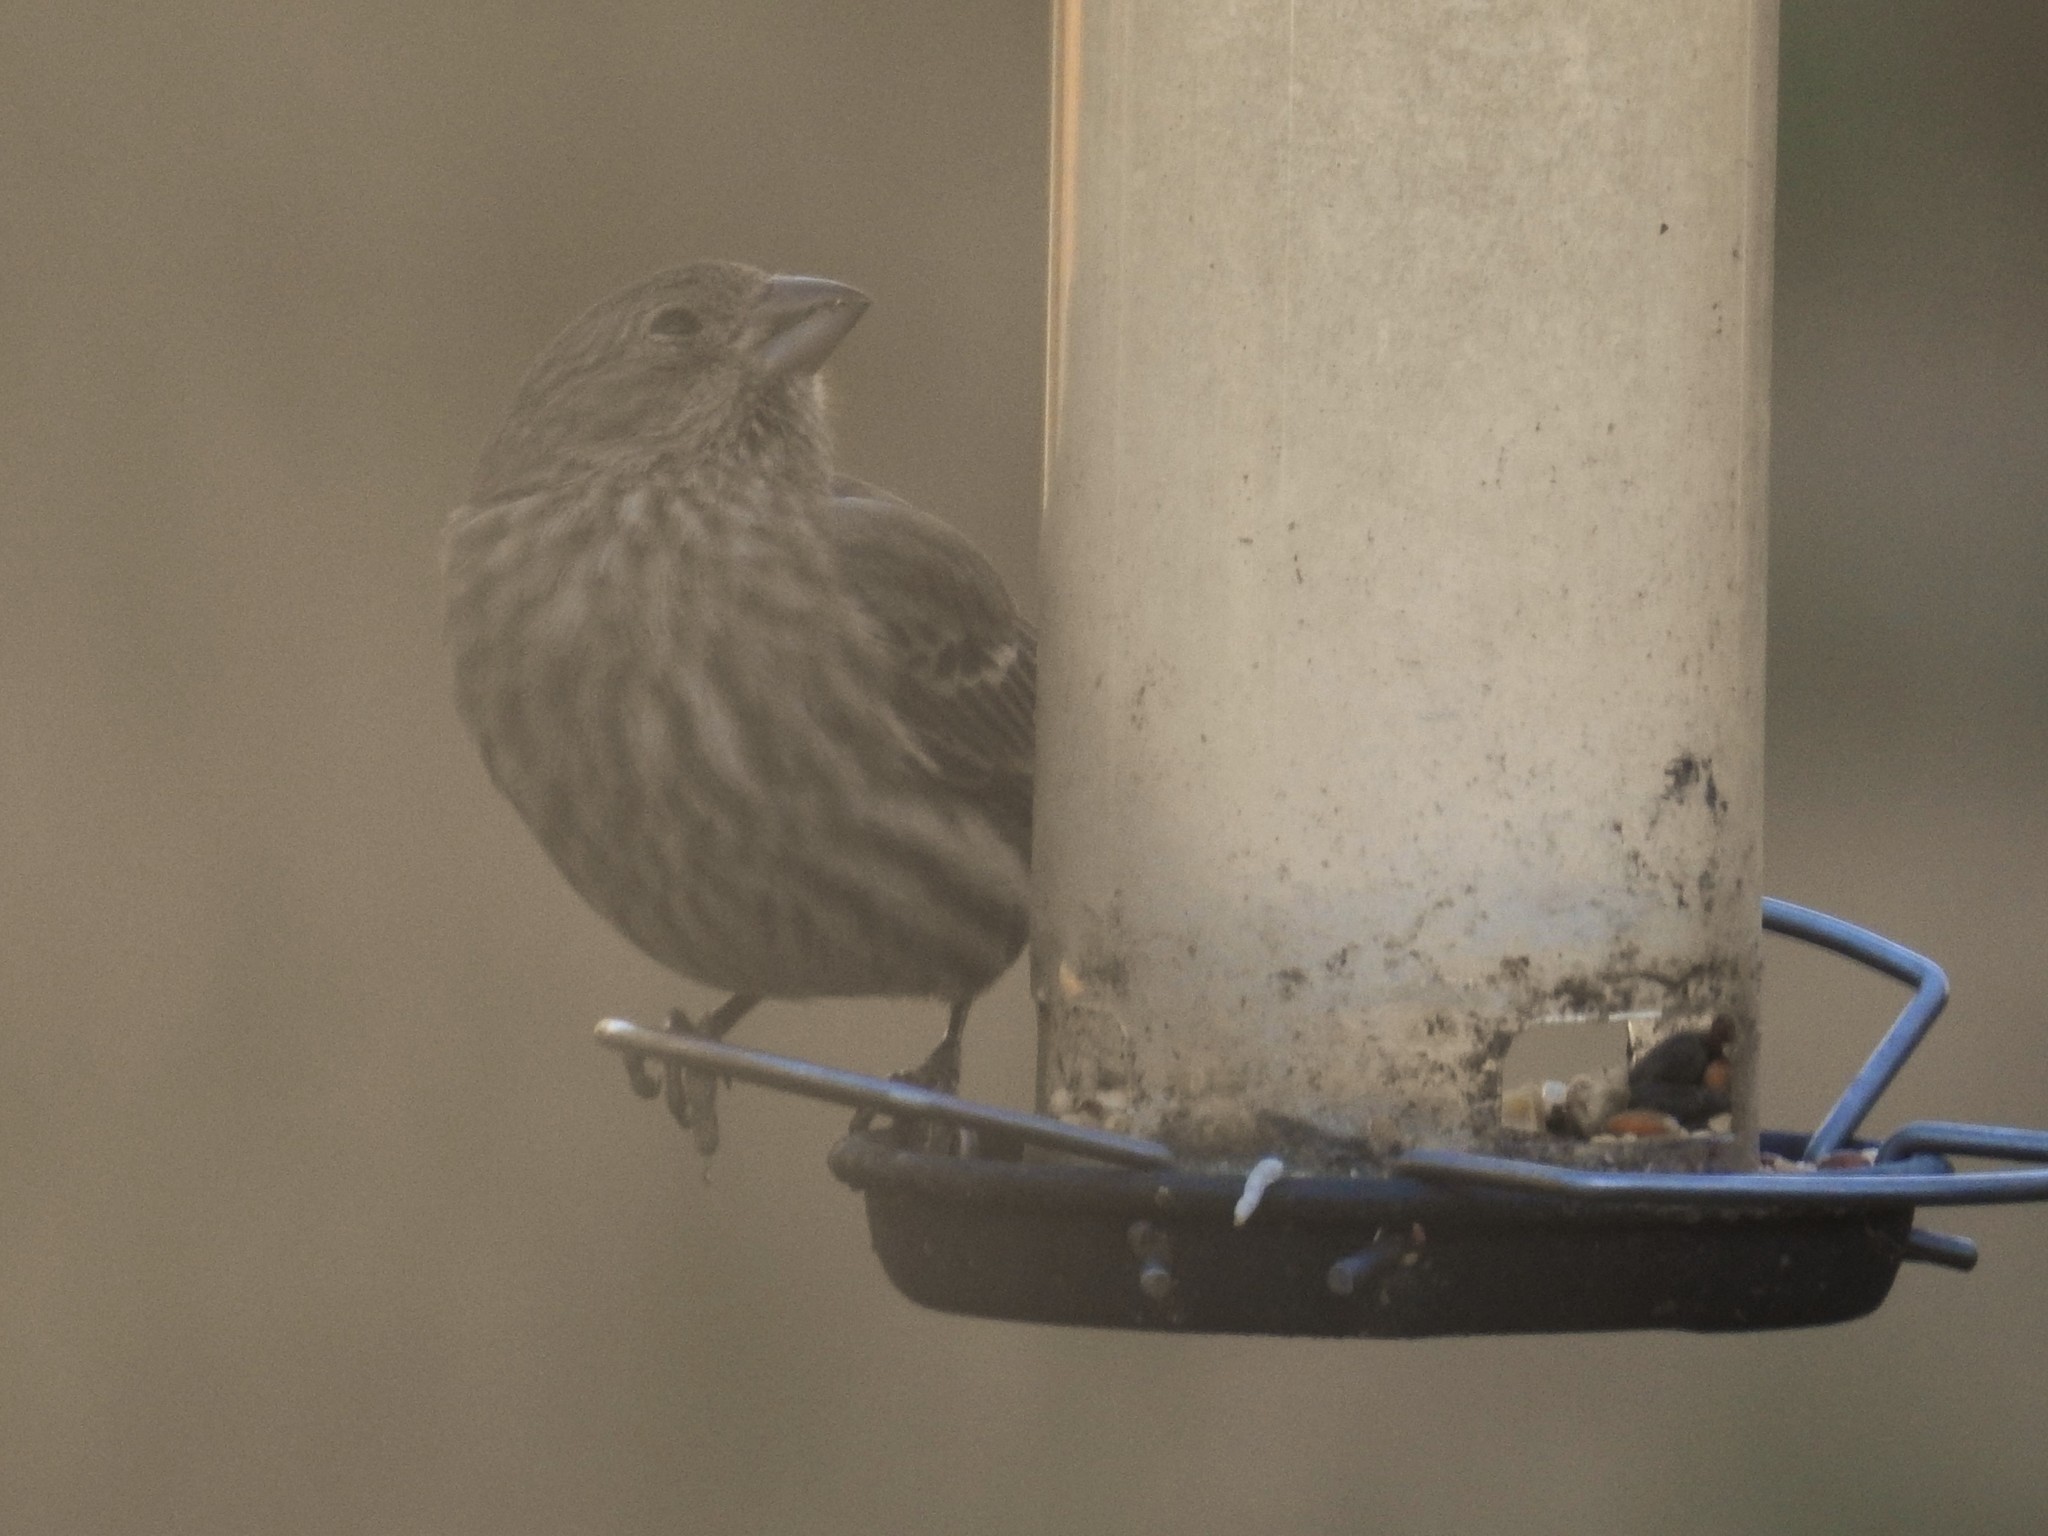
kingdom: Animalia
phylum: Chordata
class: Aves
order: Passeriformes
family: Fringillidae
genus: Haemorhous
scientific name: Haemorhous mexicanus
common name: House finch
